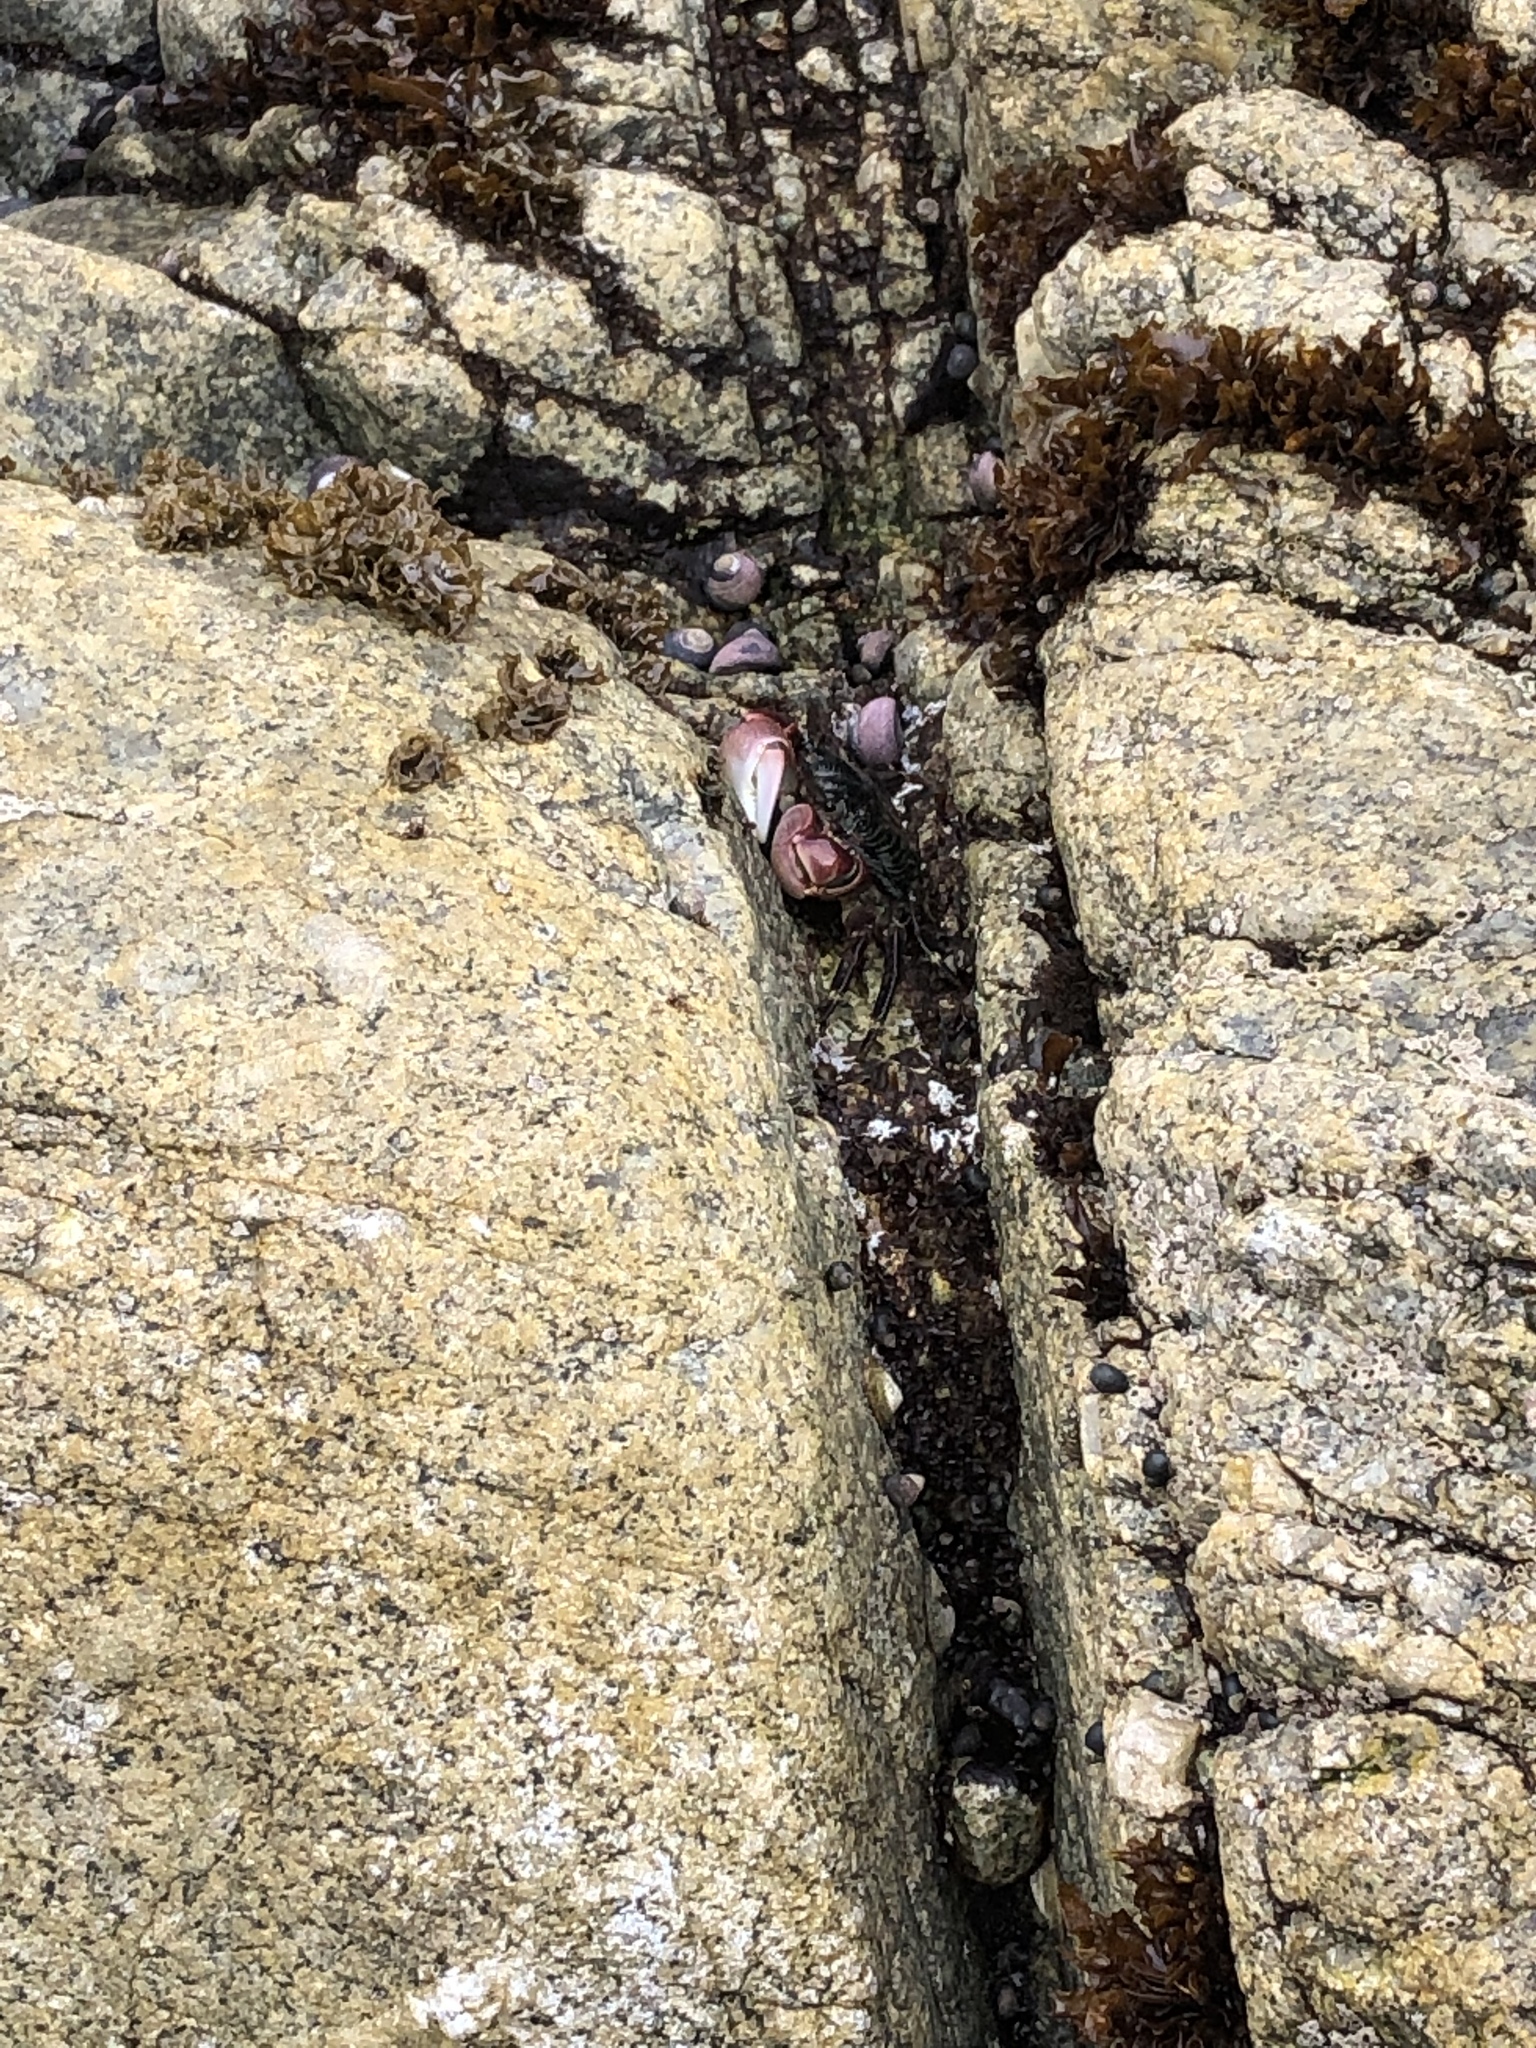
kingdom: Animalia
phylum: Arthropoda
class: Malacostraca
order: Decapoda
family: Grapsidae
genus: Pachygrapsus
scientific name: Pachygrapsus crassipes
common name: Striped shore crab
